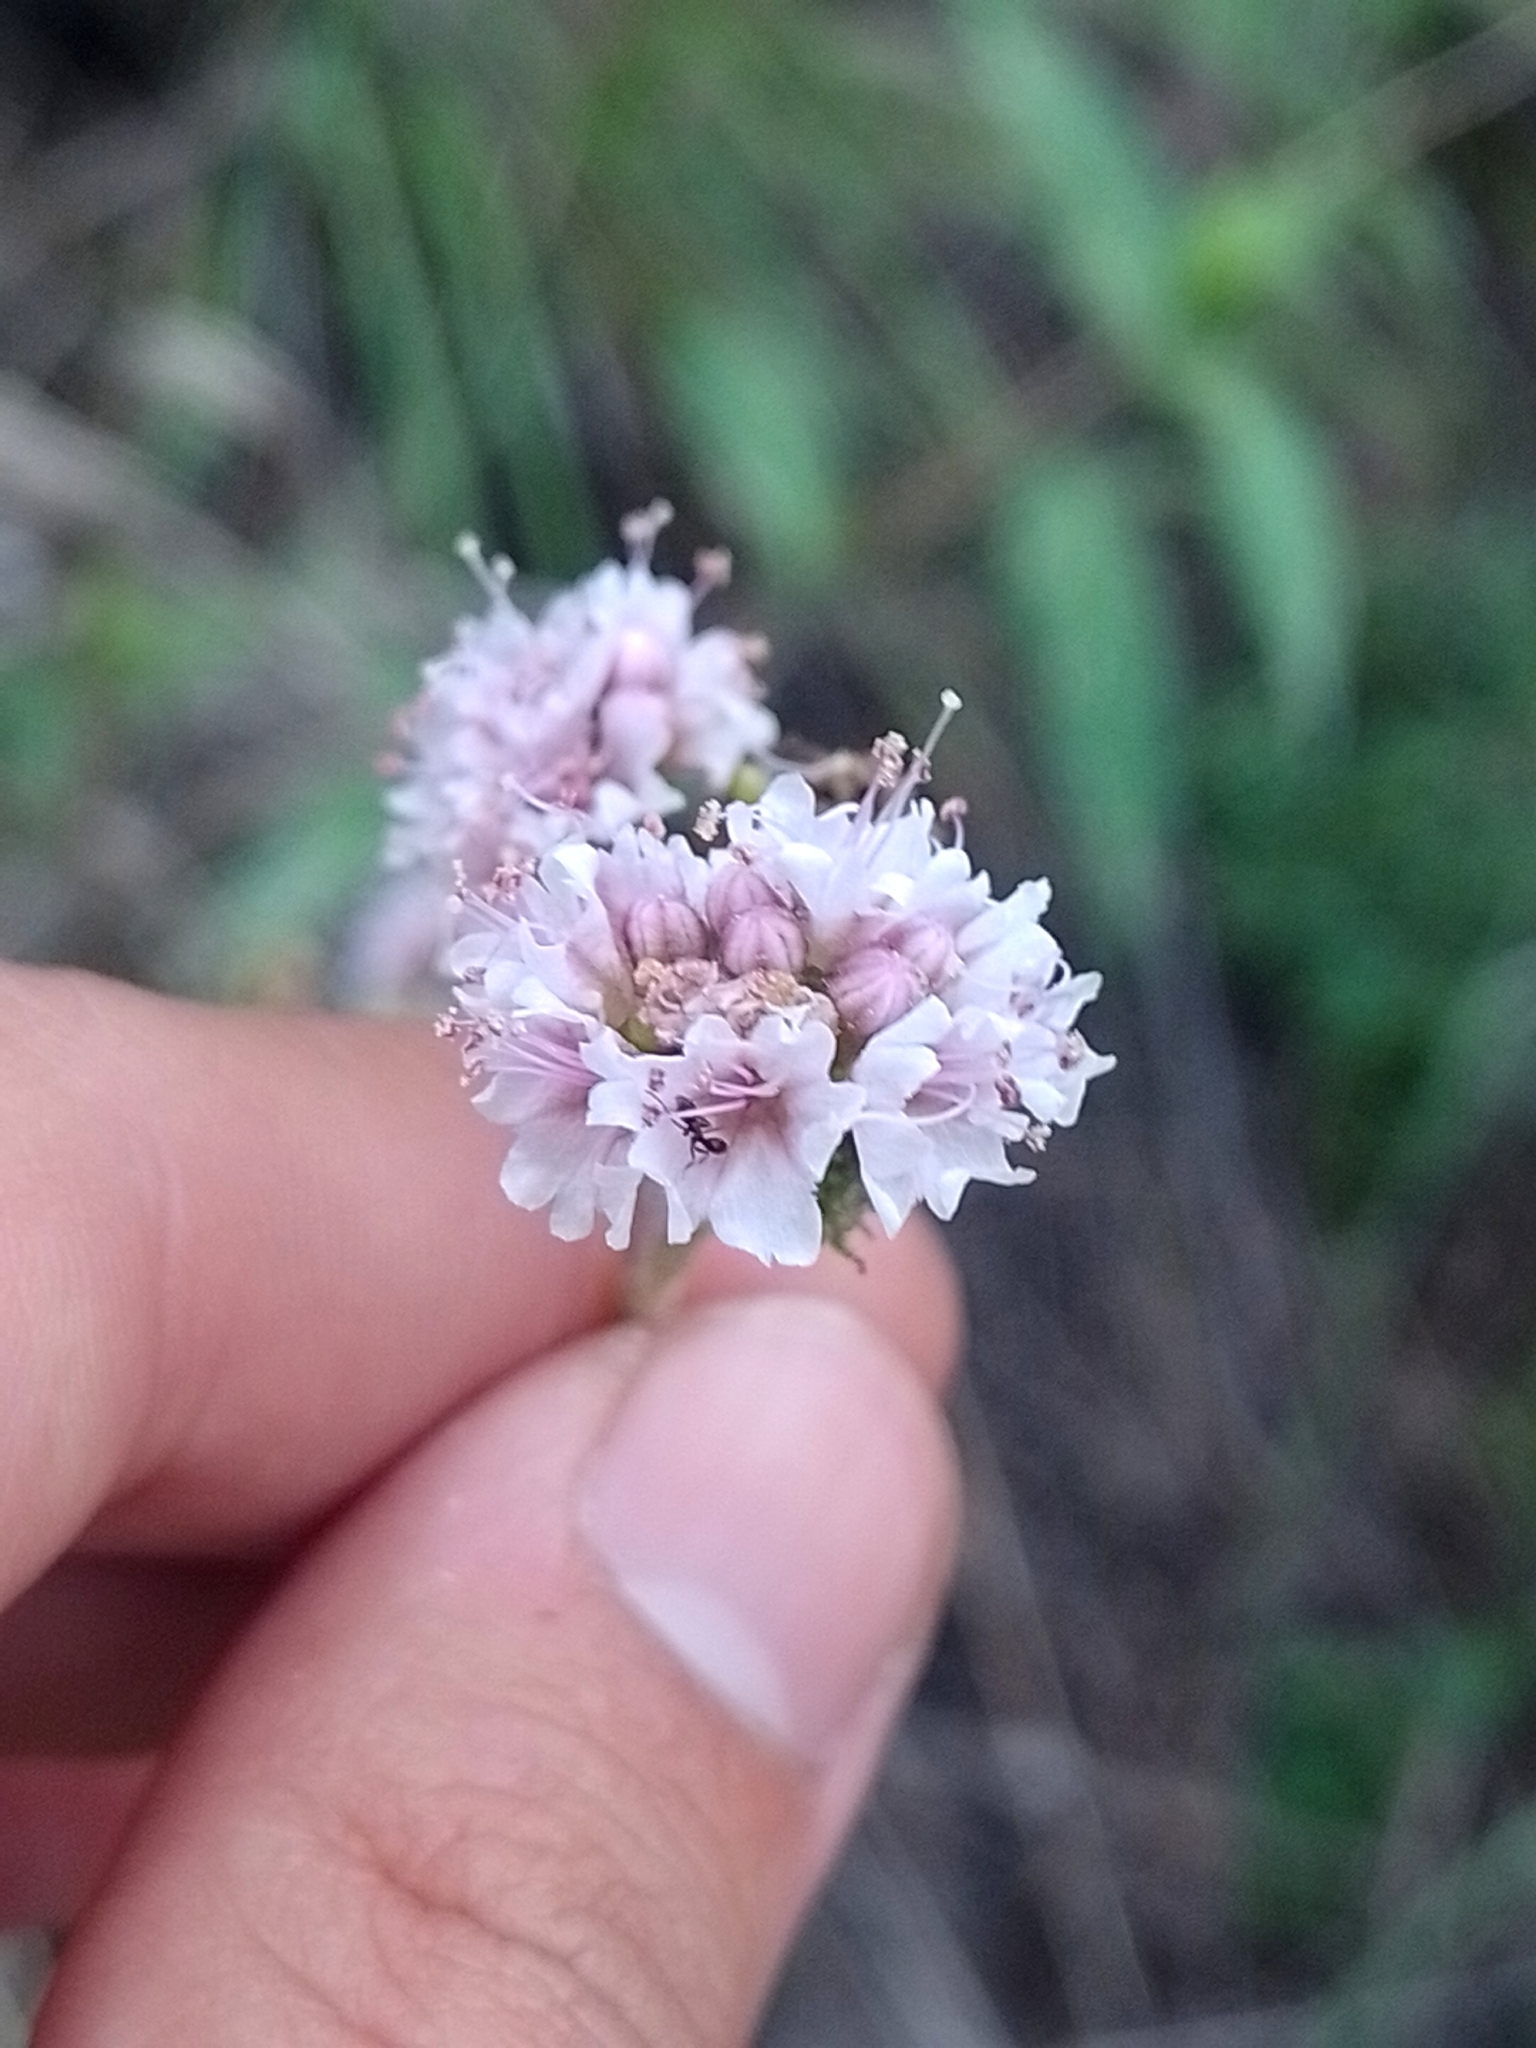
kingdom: Plantae
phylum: Tracheophyta
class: Magnoliopsida
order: Caryophyllales
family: Nyctaginaceae
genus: Boerhavia
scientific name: Boerhavia pulchella
